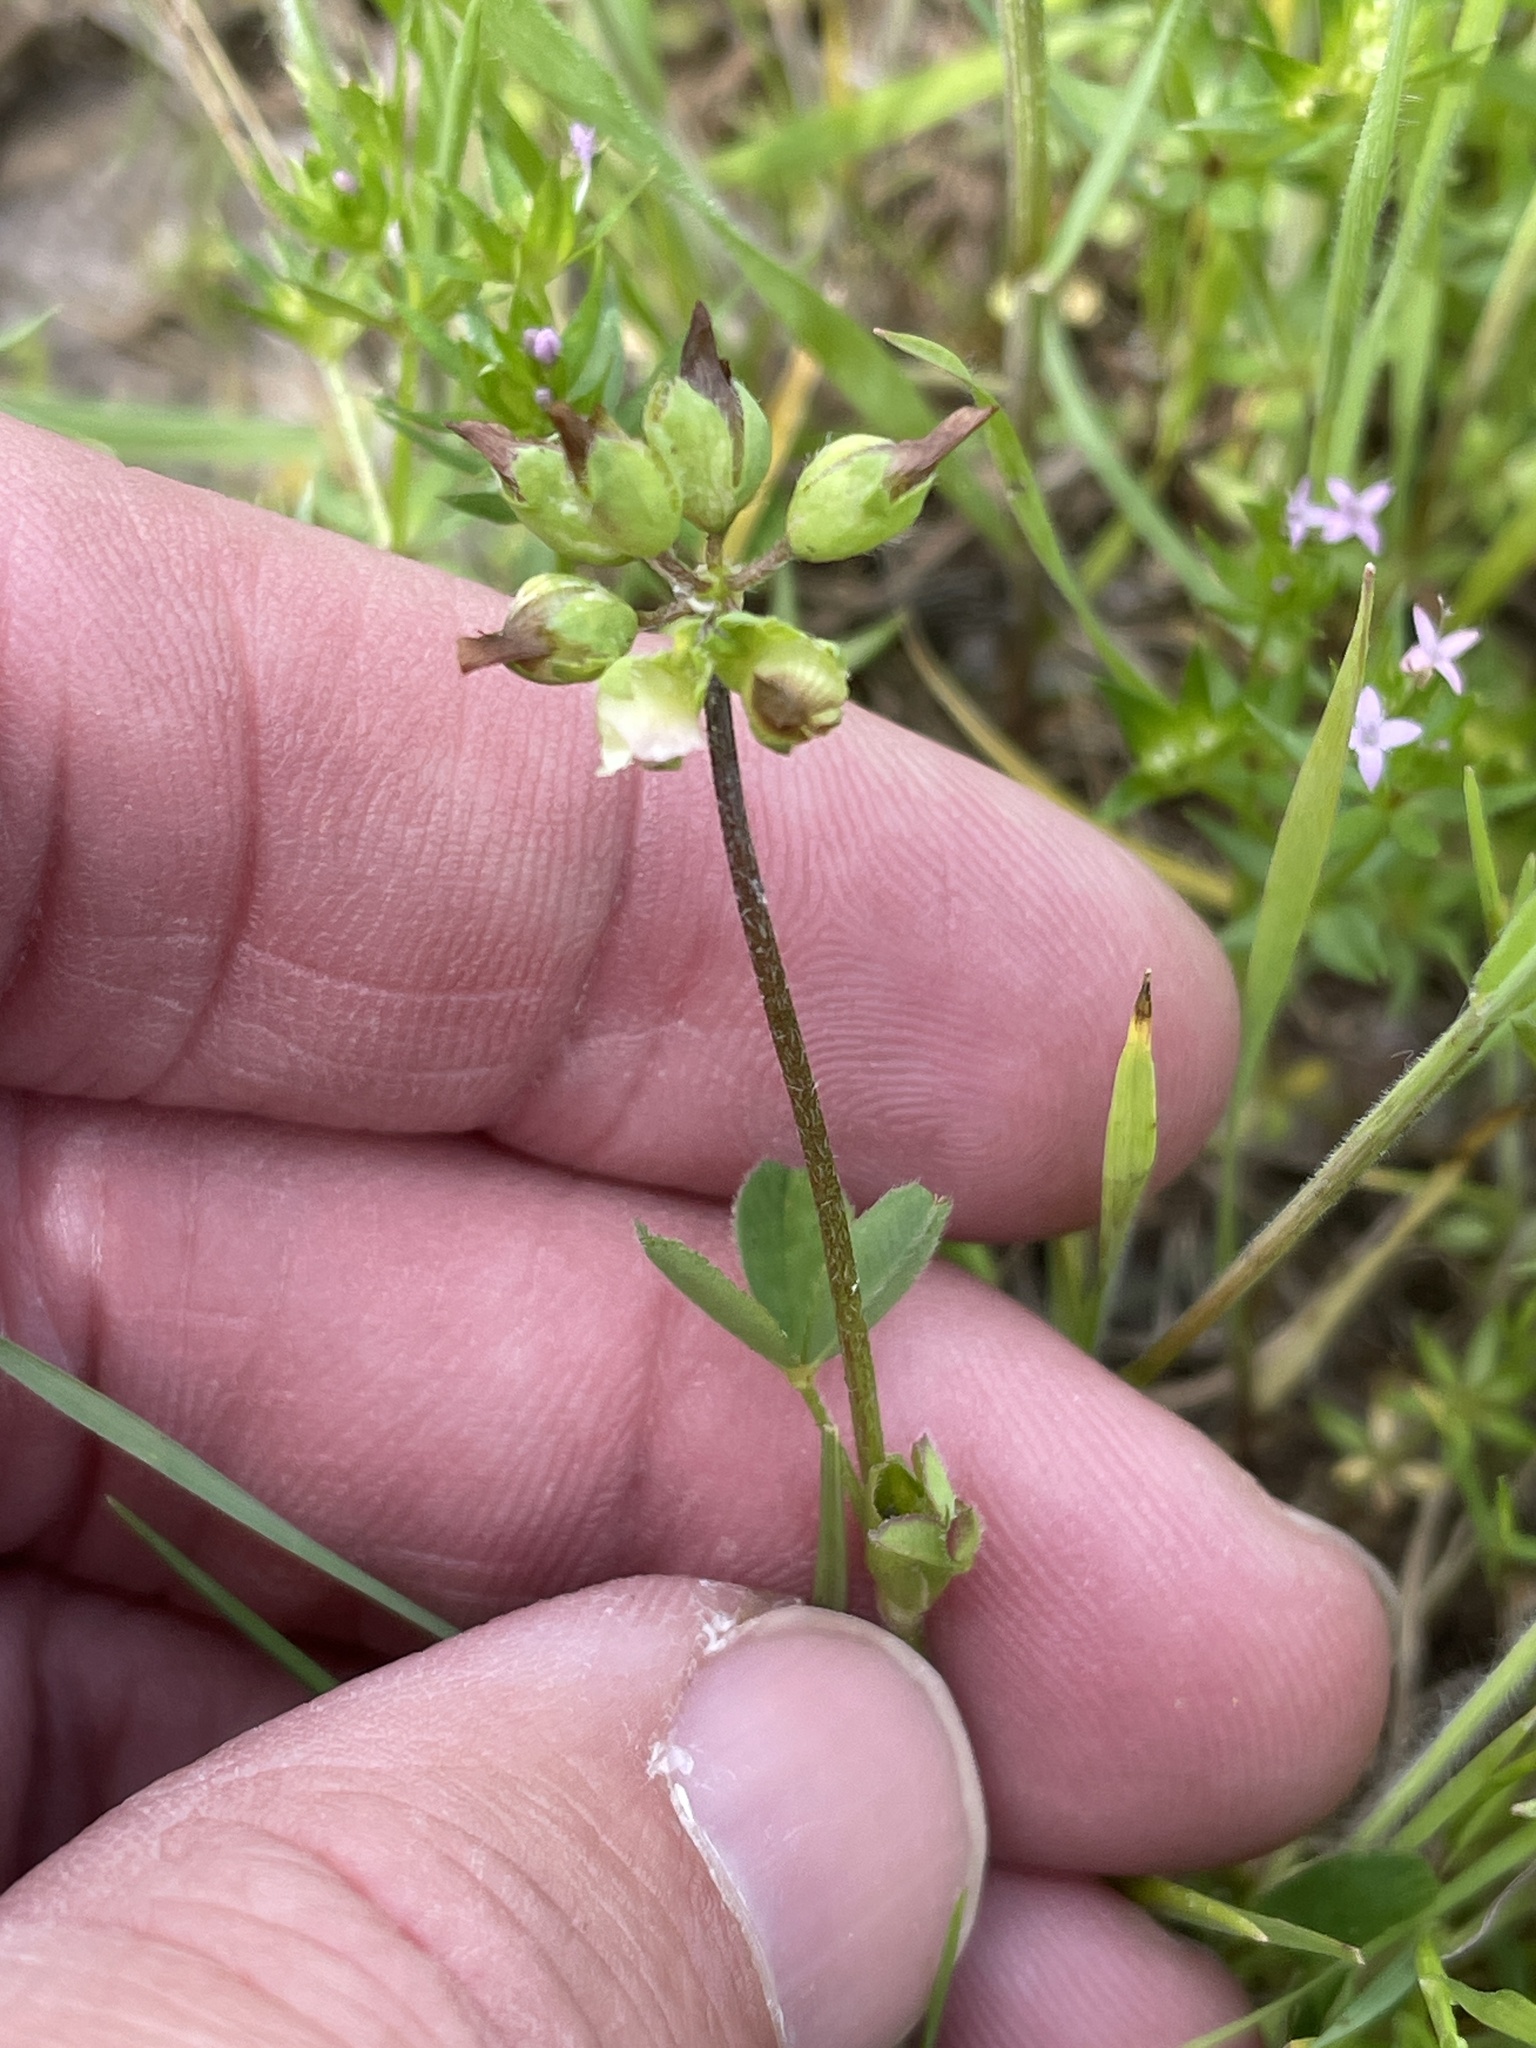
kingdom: Plantae
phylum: Tracheophyta
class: Magnoliopsida
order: Fabales
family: Fabaceae
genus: Trifolium
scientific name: Trifolium bejariense
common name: Bejar clover
